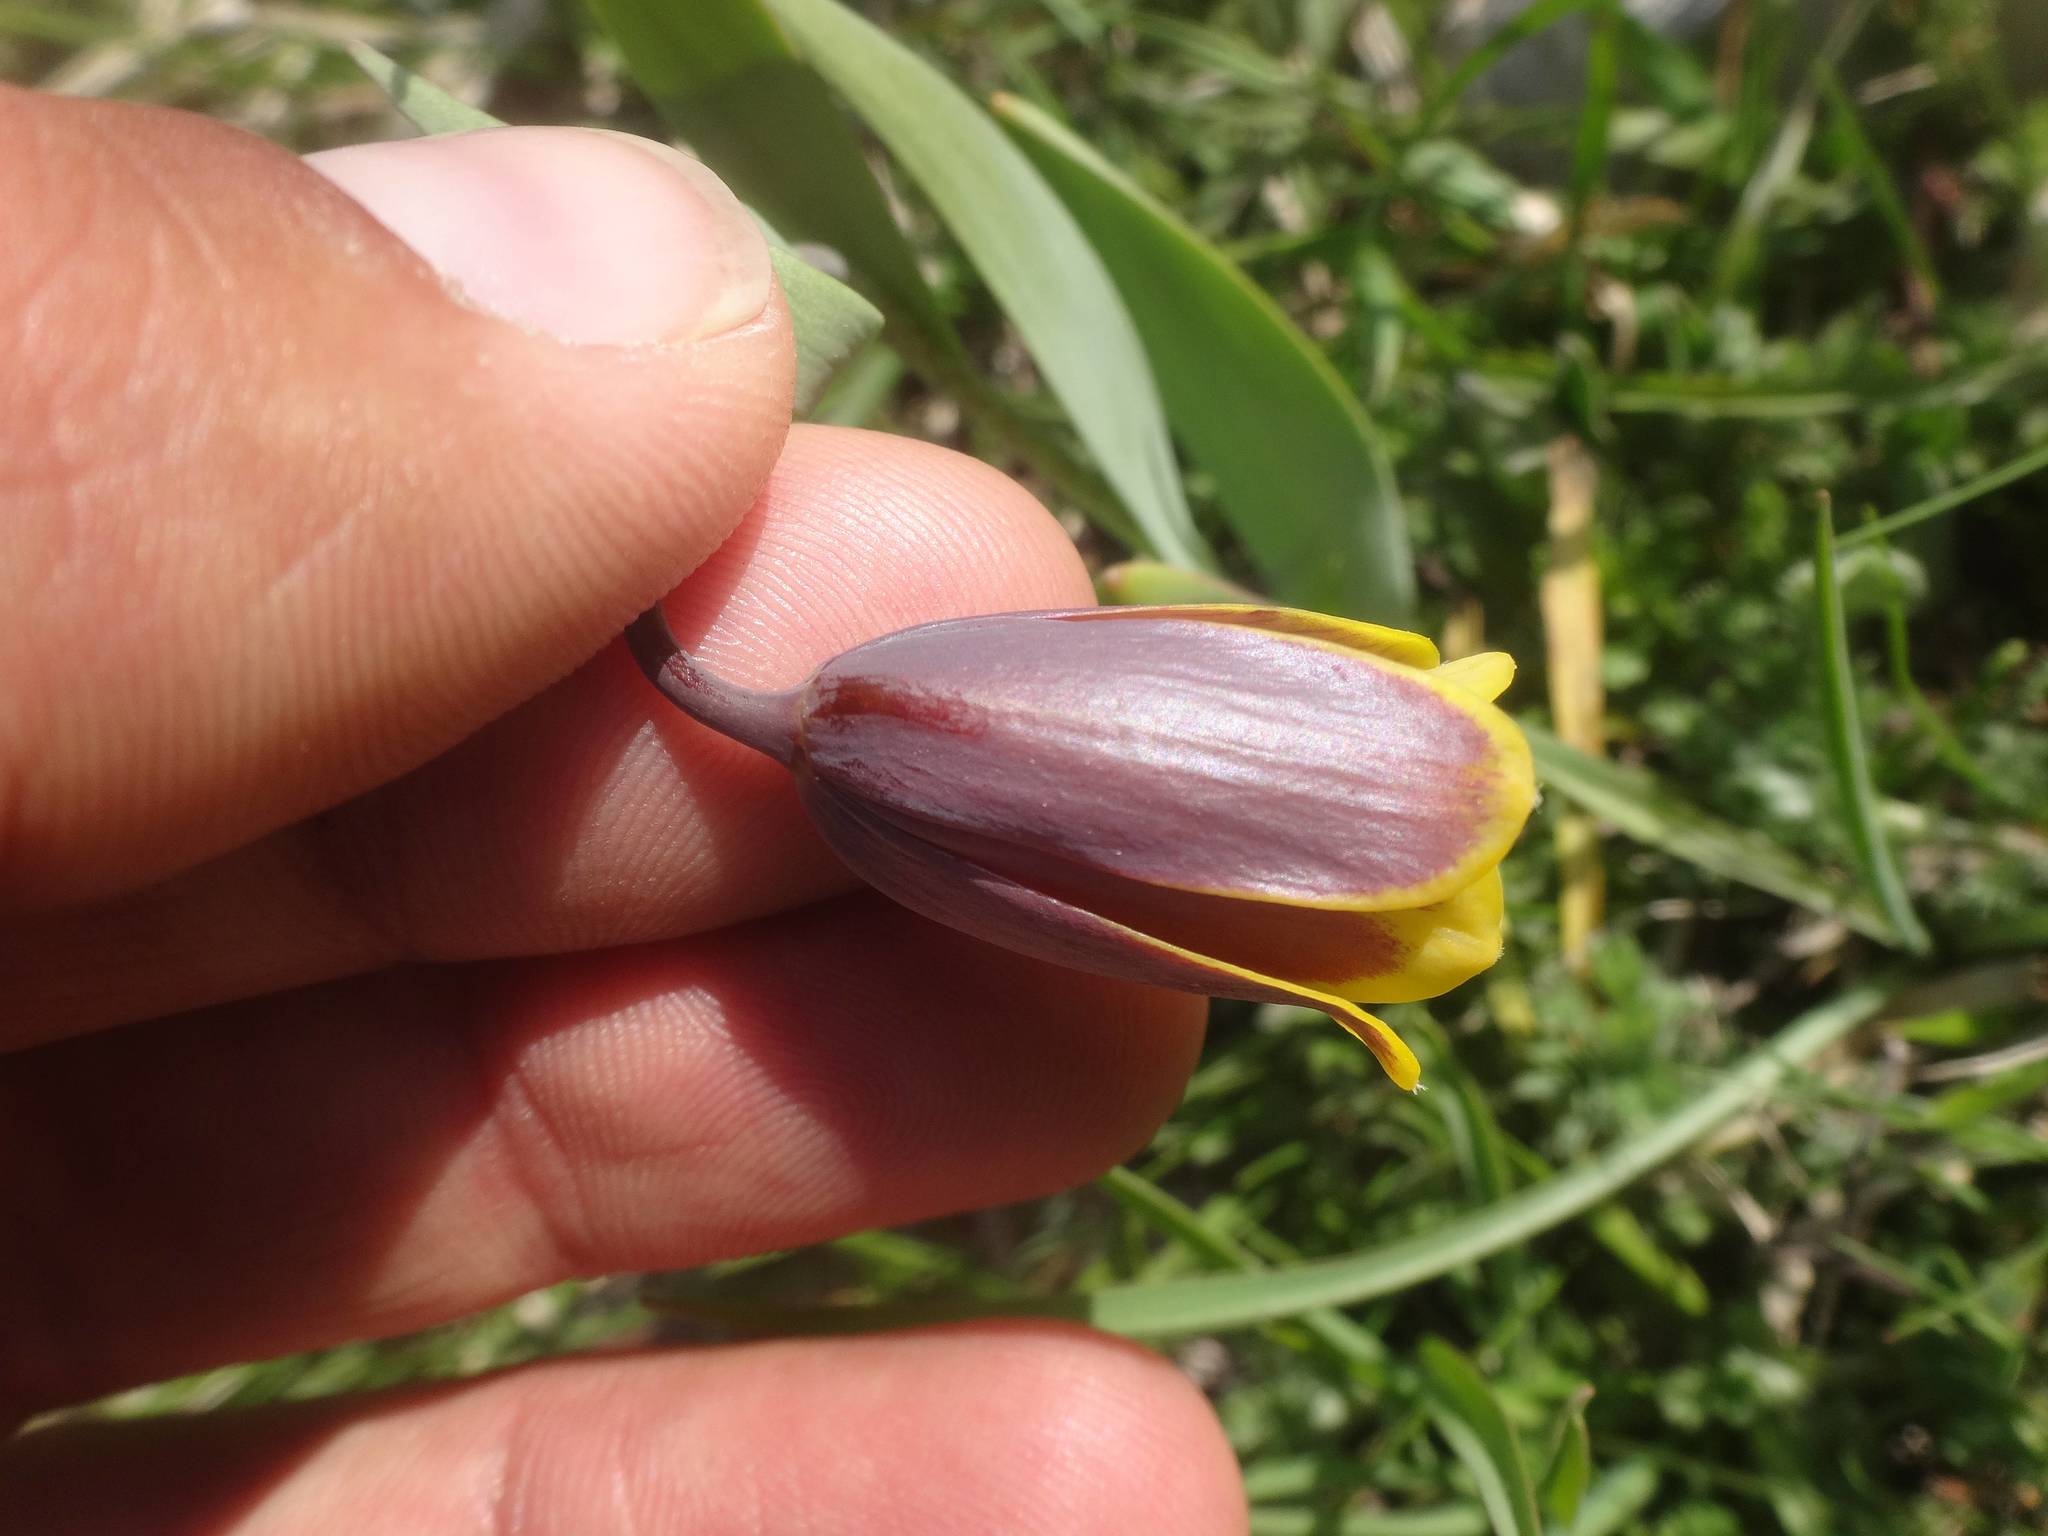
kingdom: Plantae
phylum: Tracheophyta
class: Liliopsida
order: Liliales
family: Liliaceae
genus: Fritillaria
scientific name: Fritillaria pinardii
